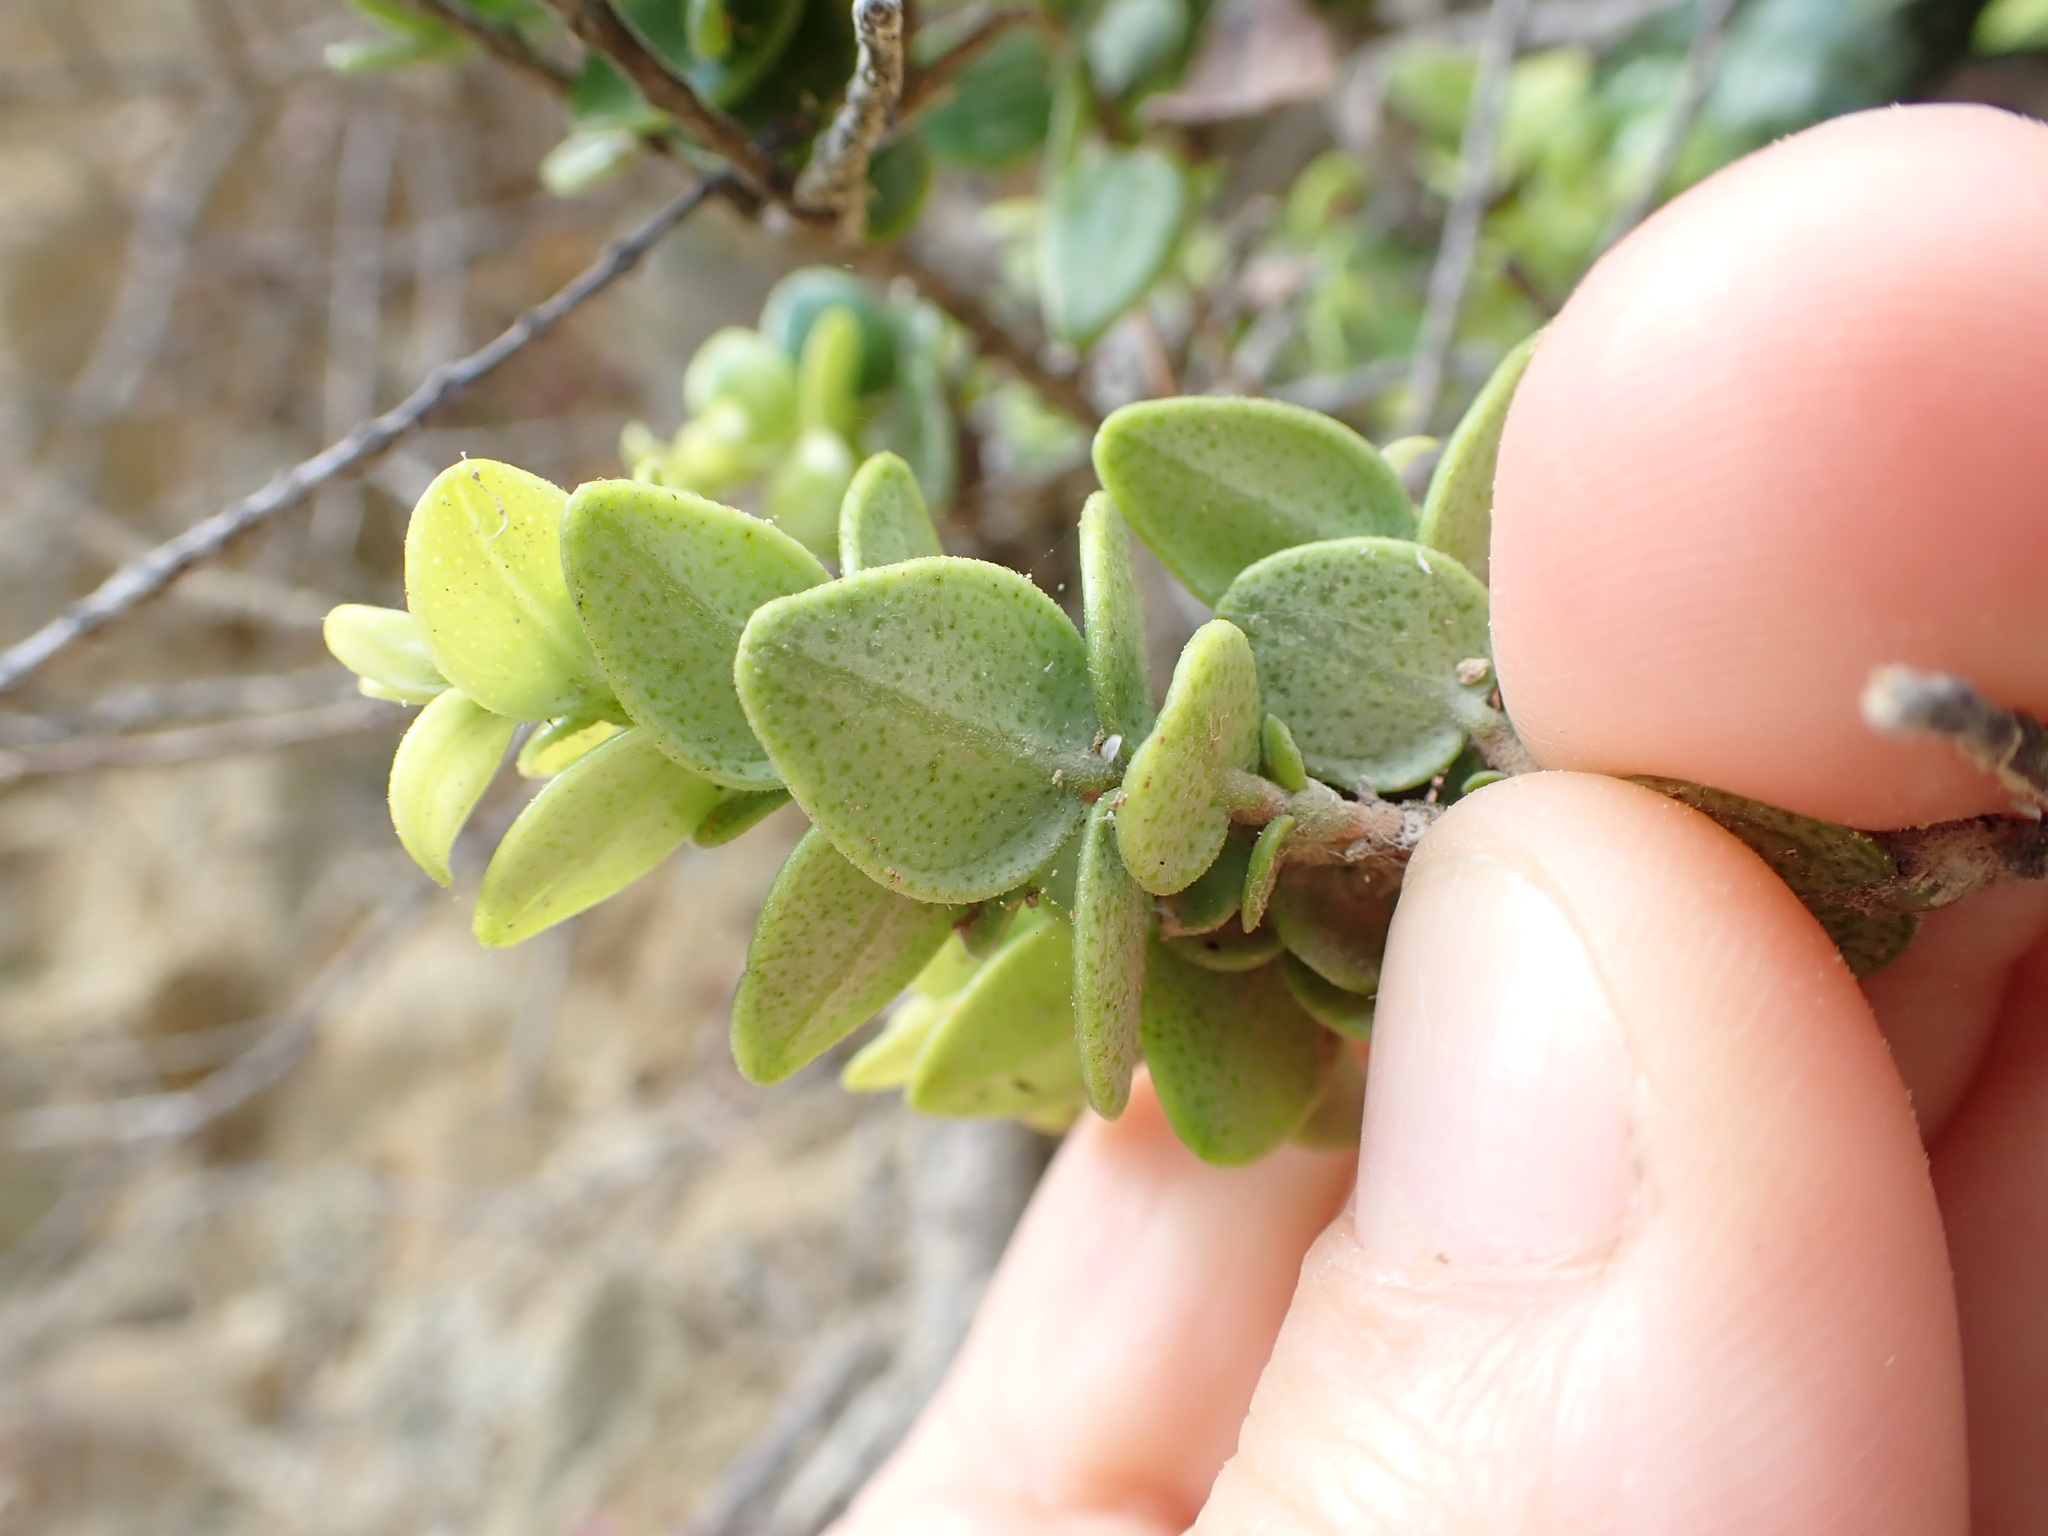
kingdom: Plantae
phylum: Tracheophyta
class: Magnoliopsida
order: Myrtales
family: Myrtaceae
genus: Metrosideros
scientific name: Metrosideros perforata
